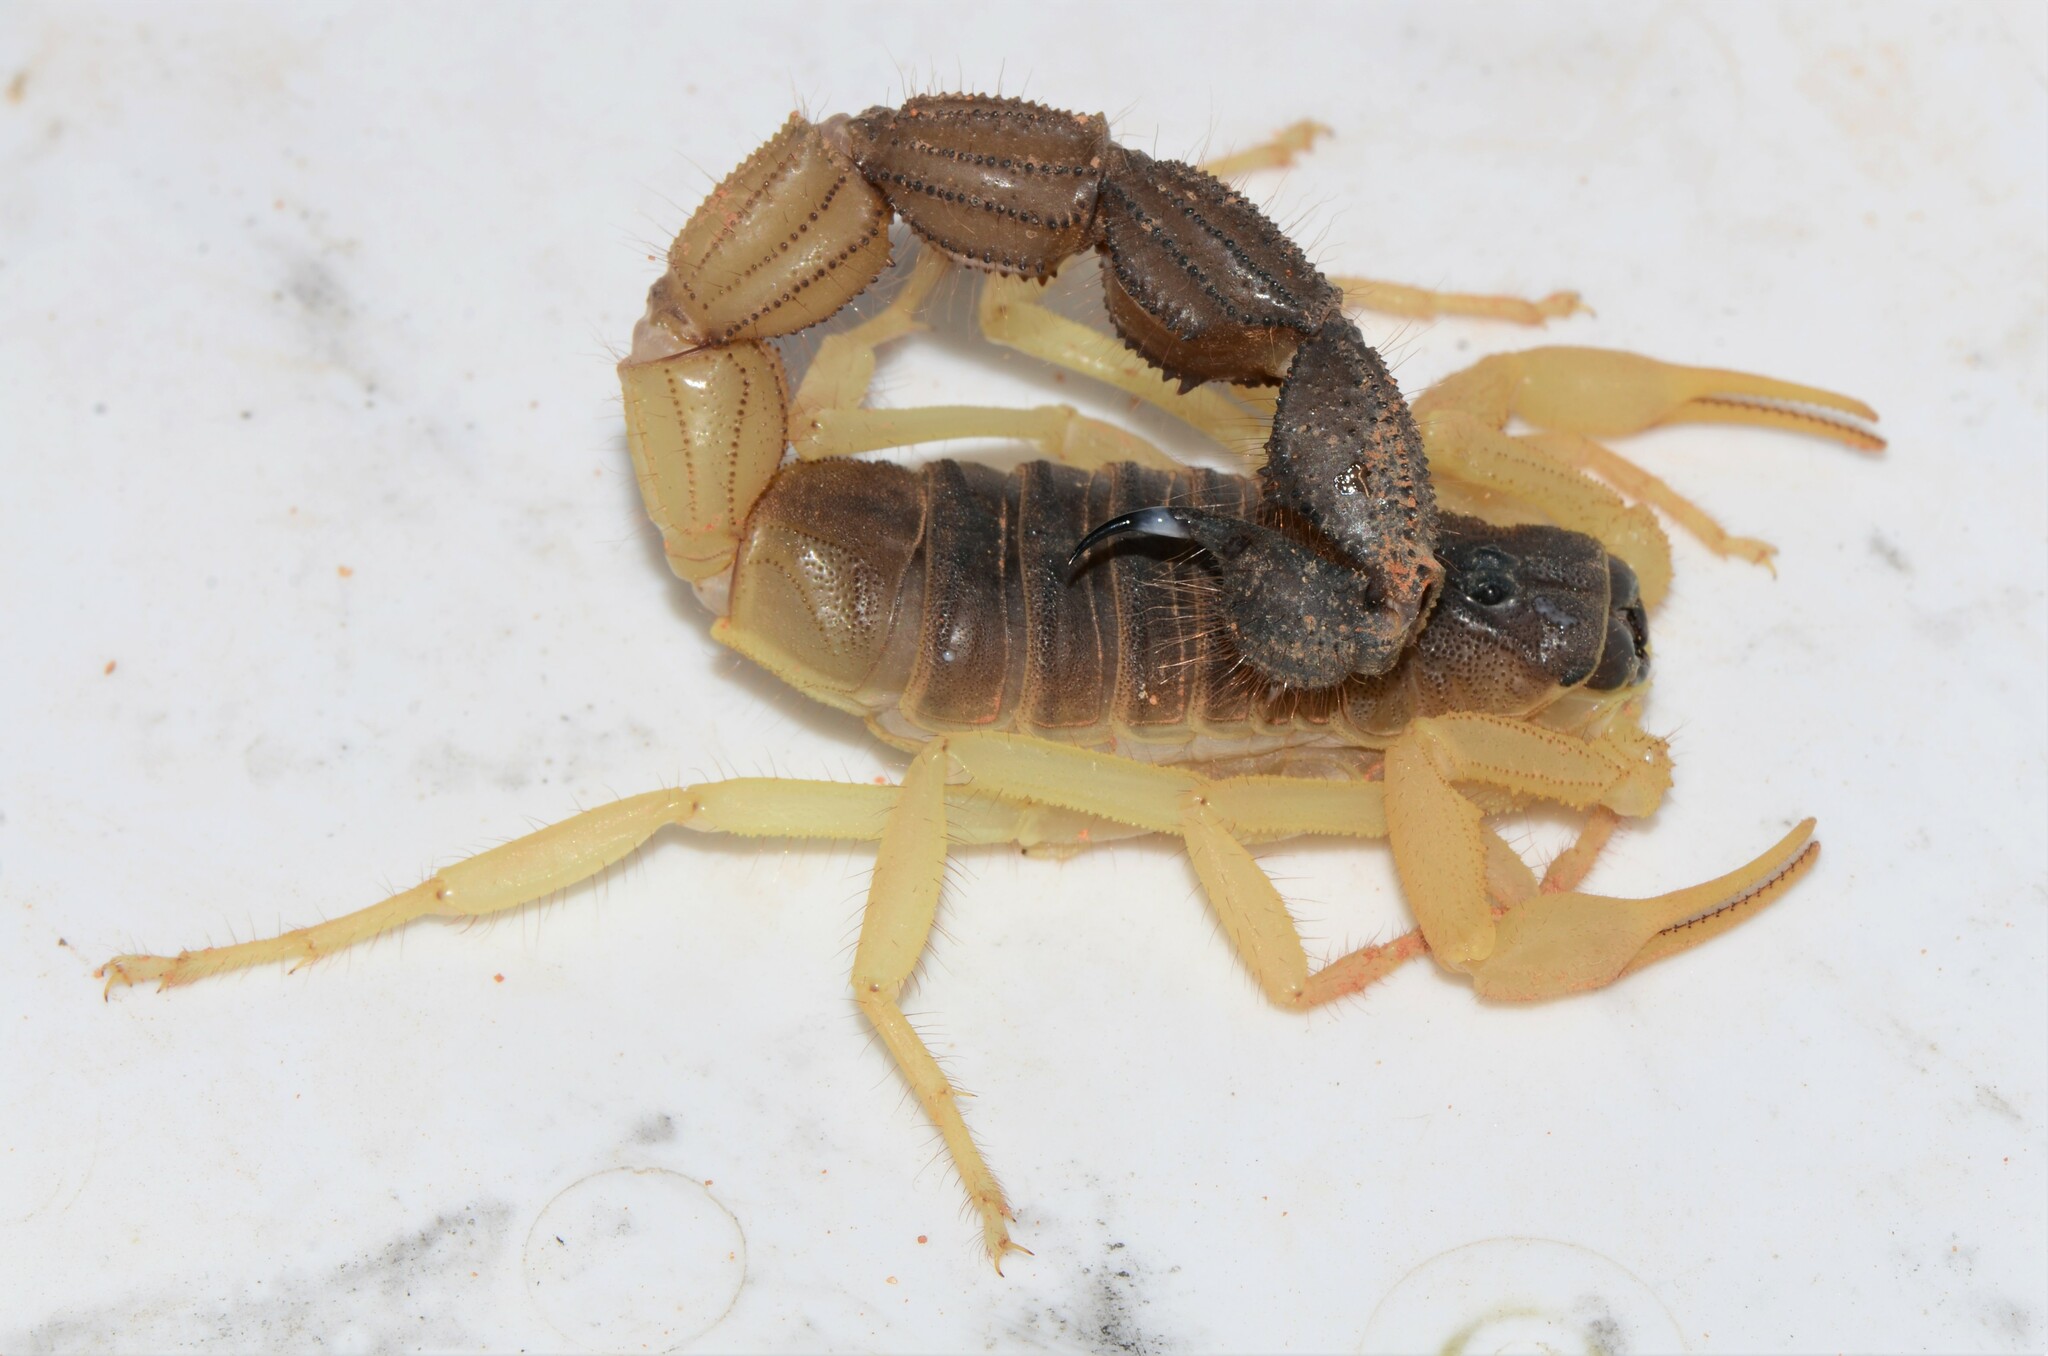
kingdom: Animalia
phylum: Arthropoda
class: Arachnida
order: Scorpiones
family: Buthidae
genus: Parabuthus
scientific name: Parabuthus schlechteri
